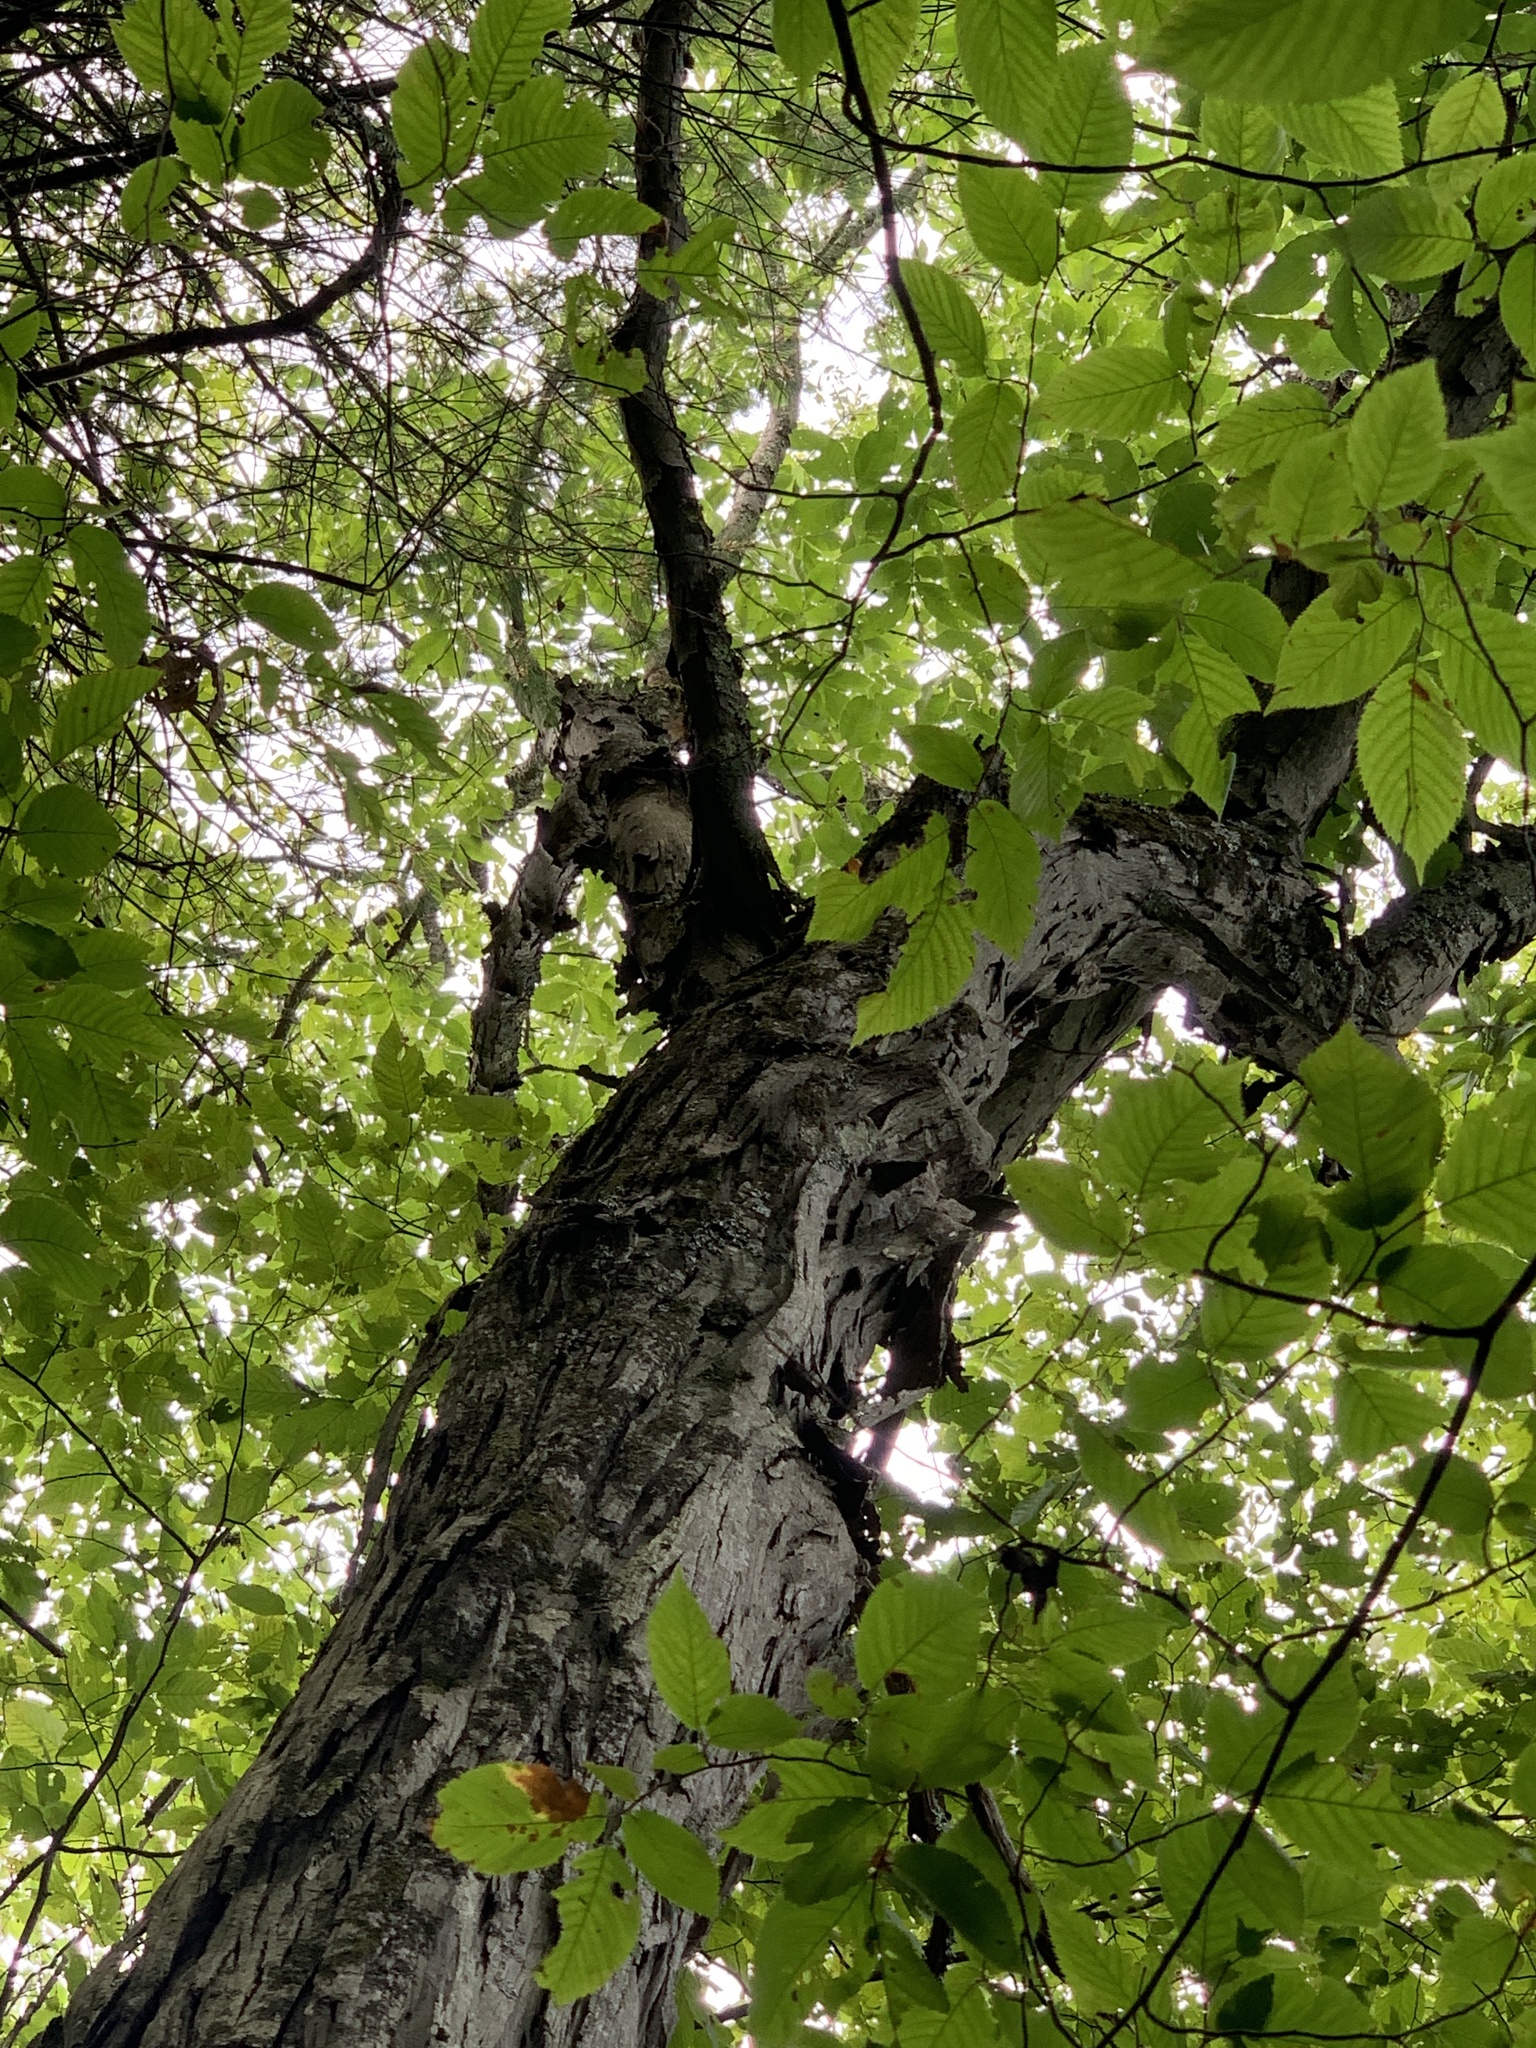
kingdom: Plantae
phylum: Tracheophyta
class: Magnoliopsida
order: Fagales
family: Juglandaceae
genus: Carya
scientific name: Carya ovata
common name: Shagbark hickory
